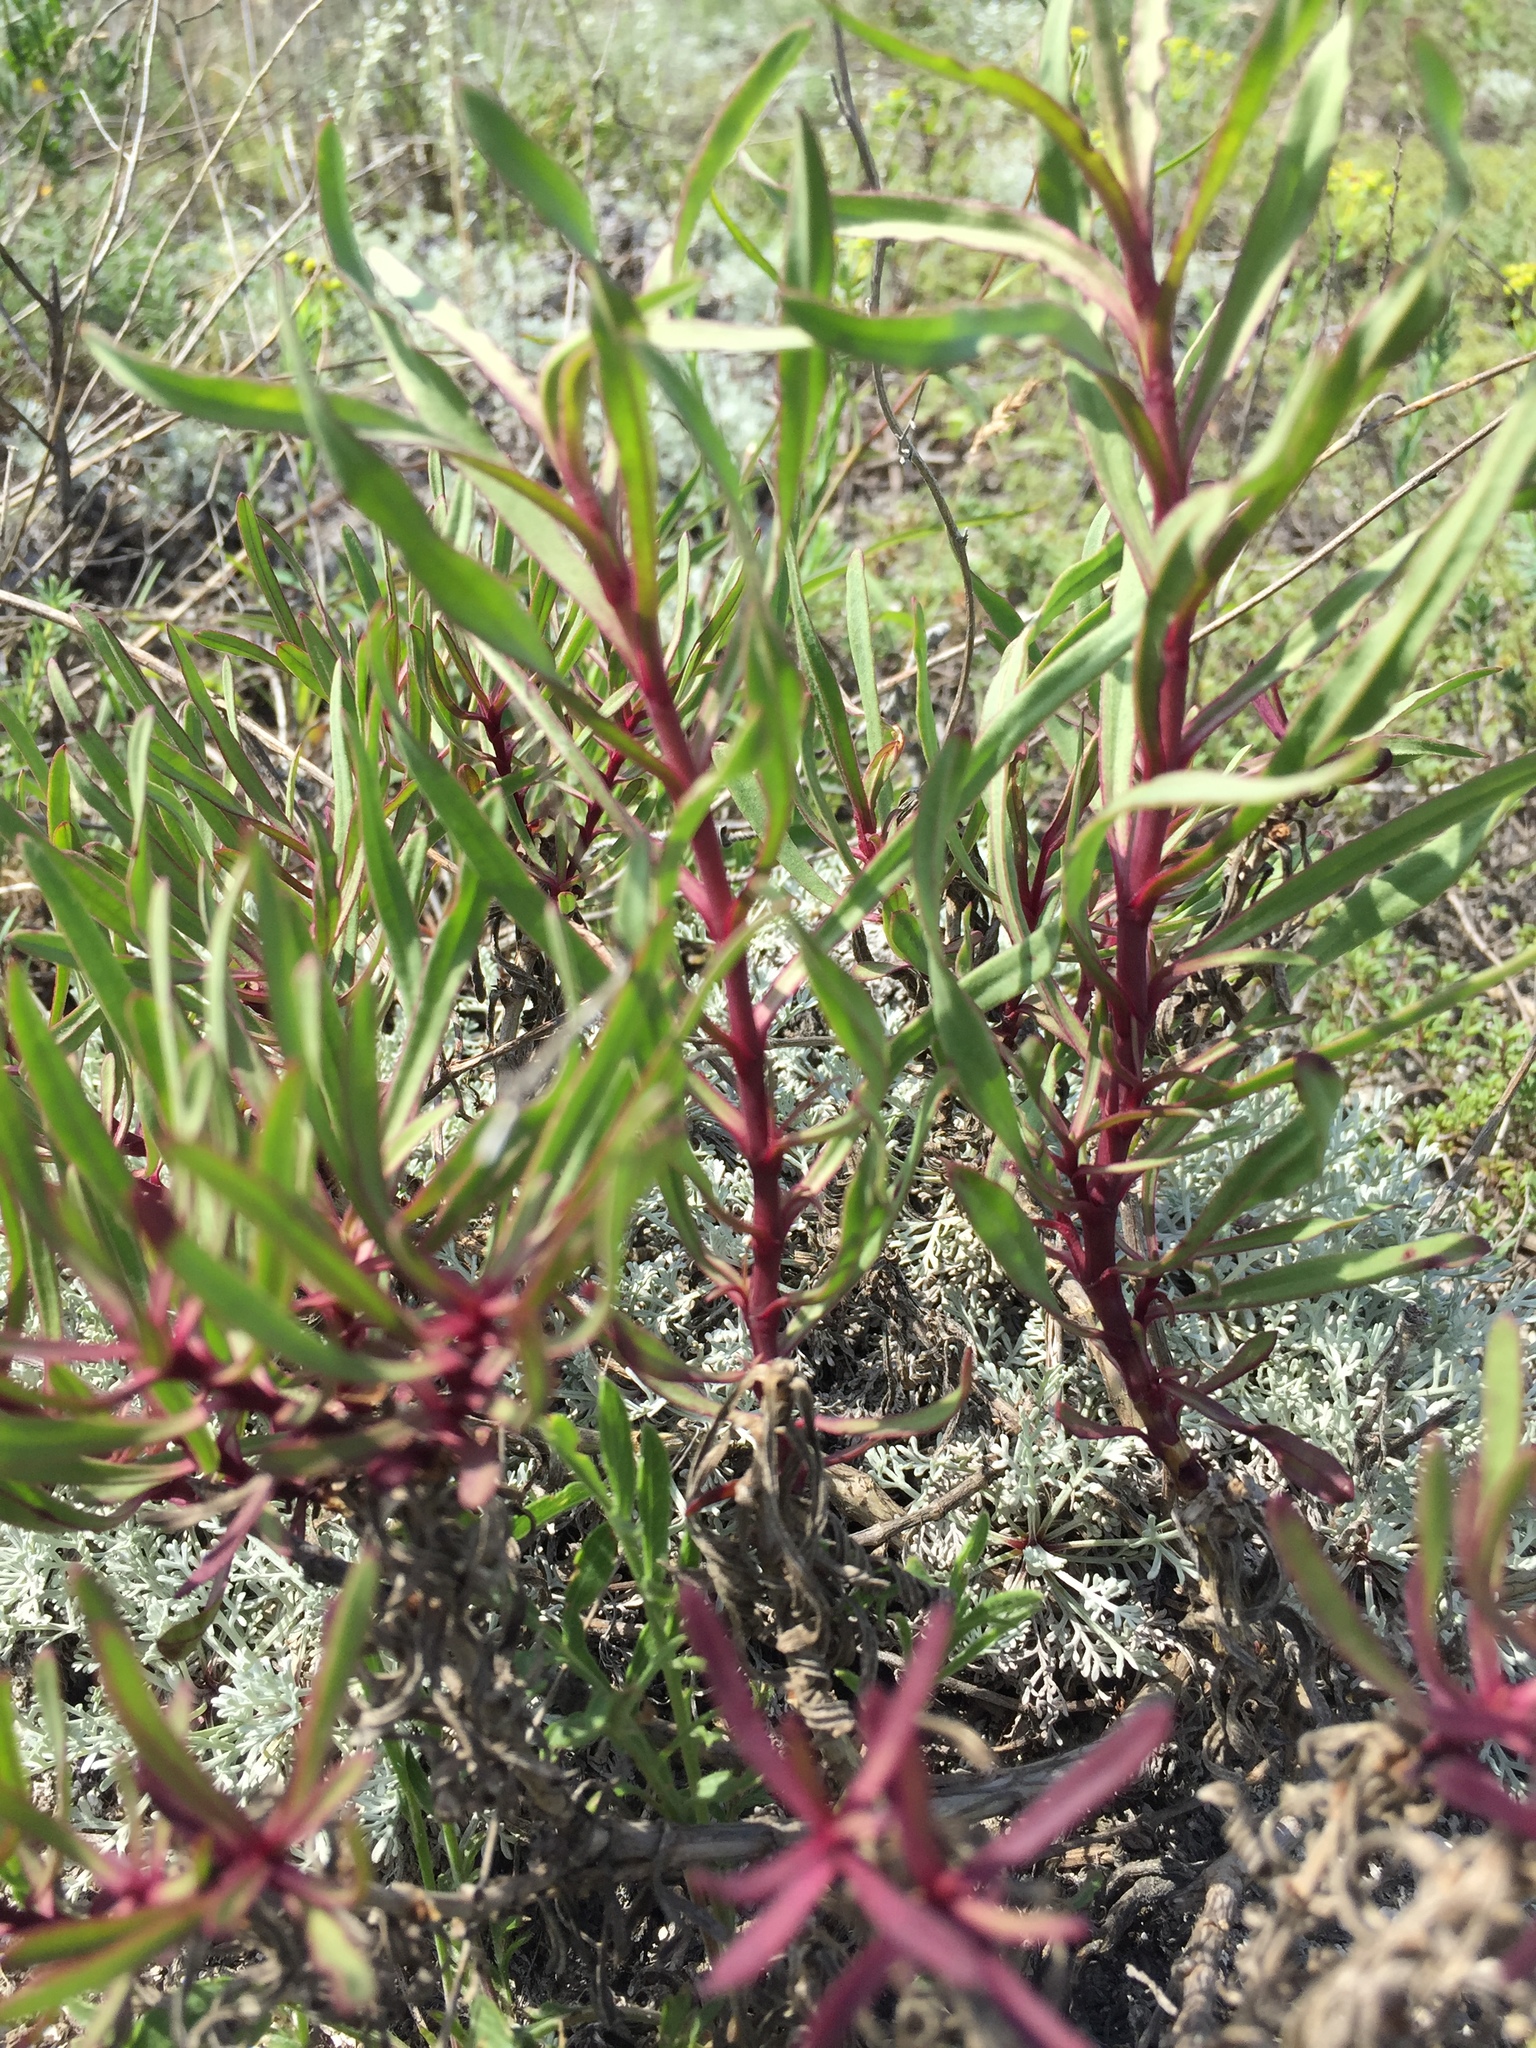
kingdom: Plantae
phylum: Tracheophyta
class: Magnoliopsida
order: Caryophyllales
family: Caryophyllaceae
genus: Gypsophila
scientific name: Gypsophila altissima
